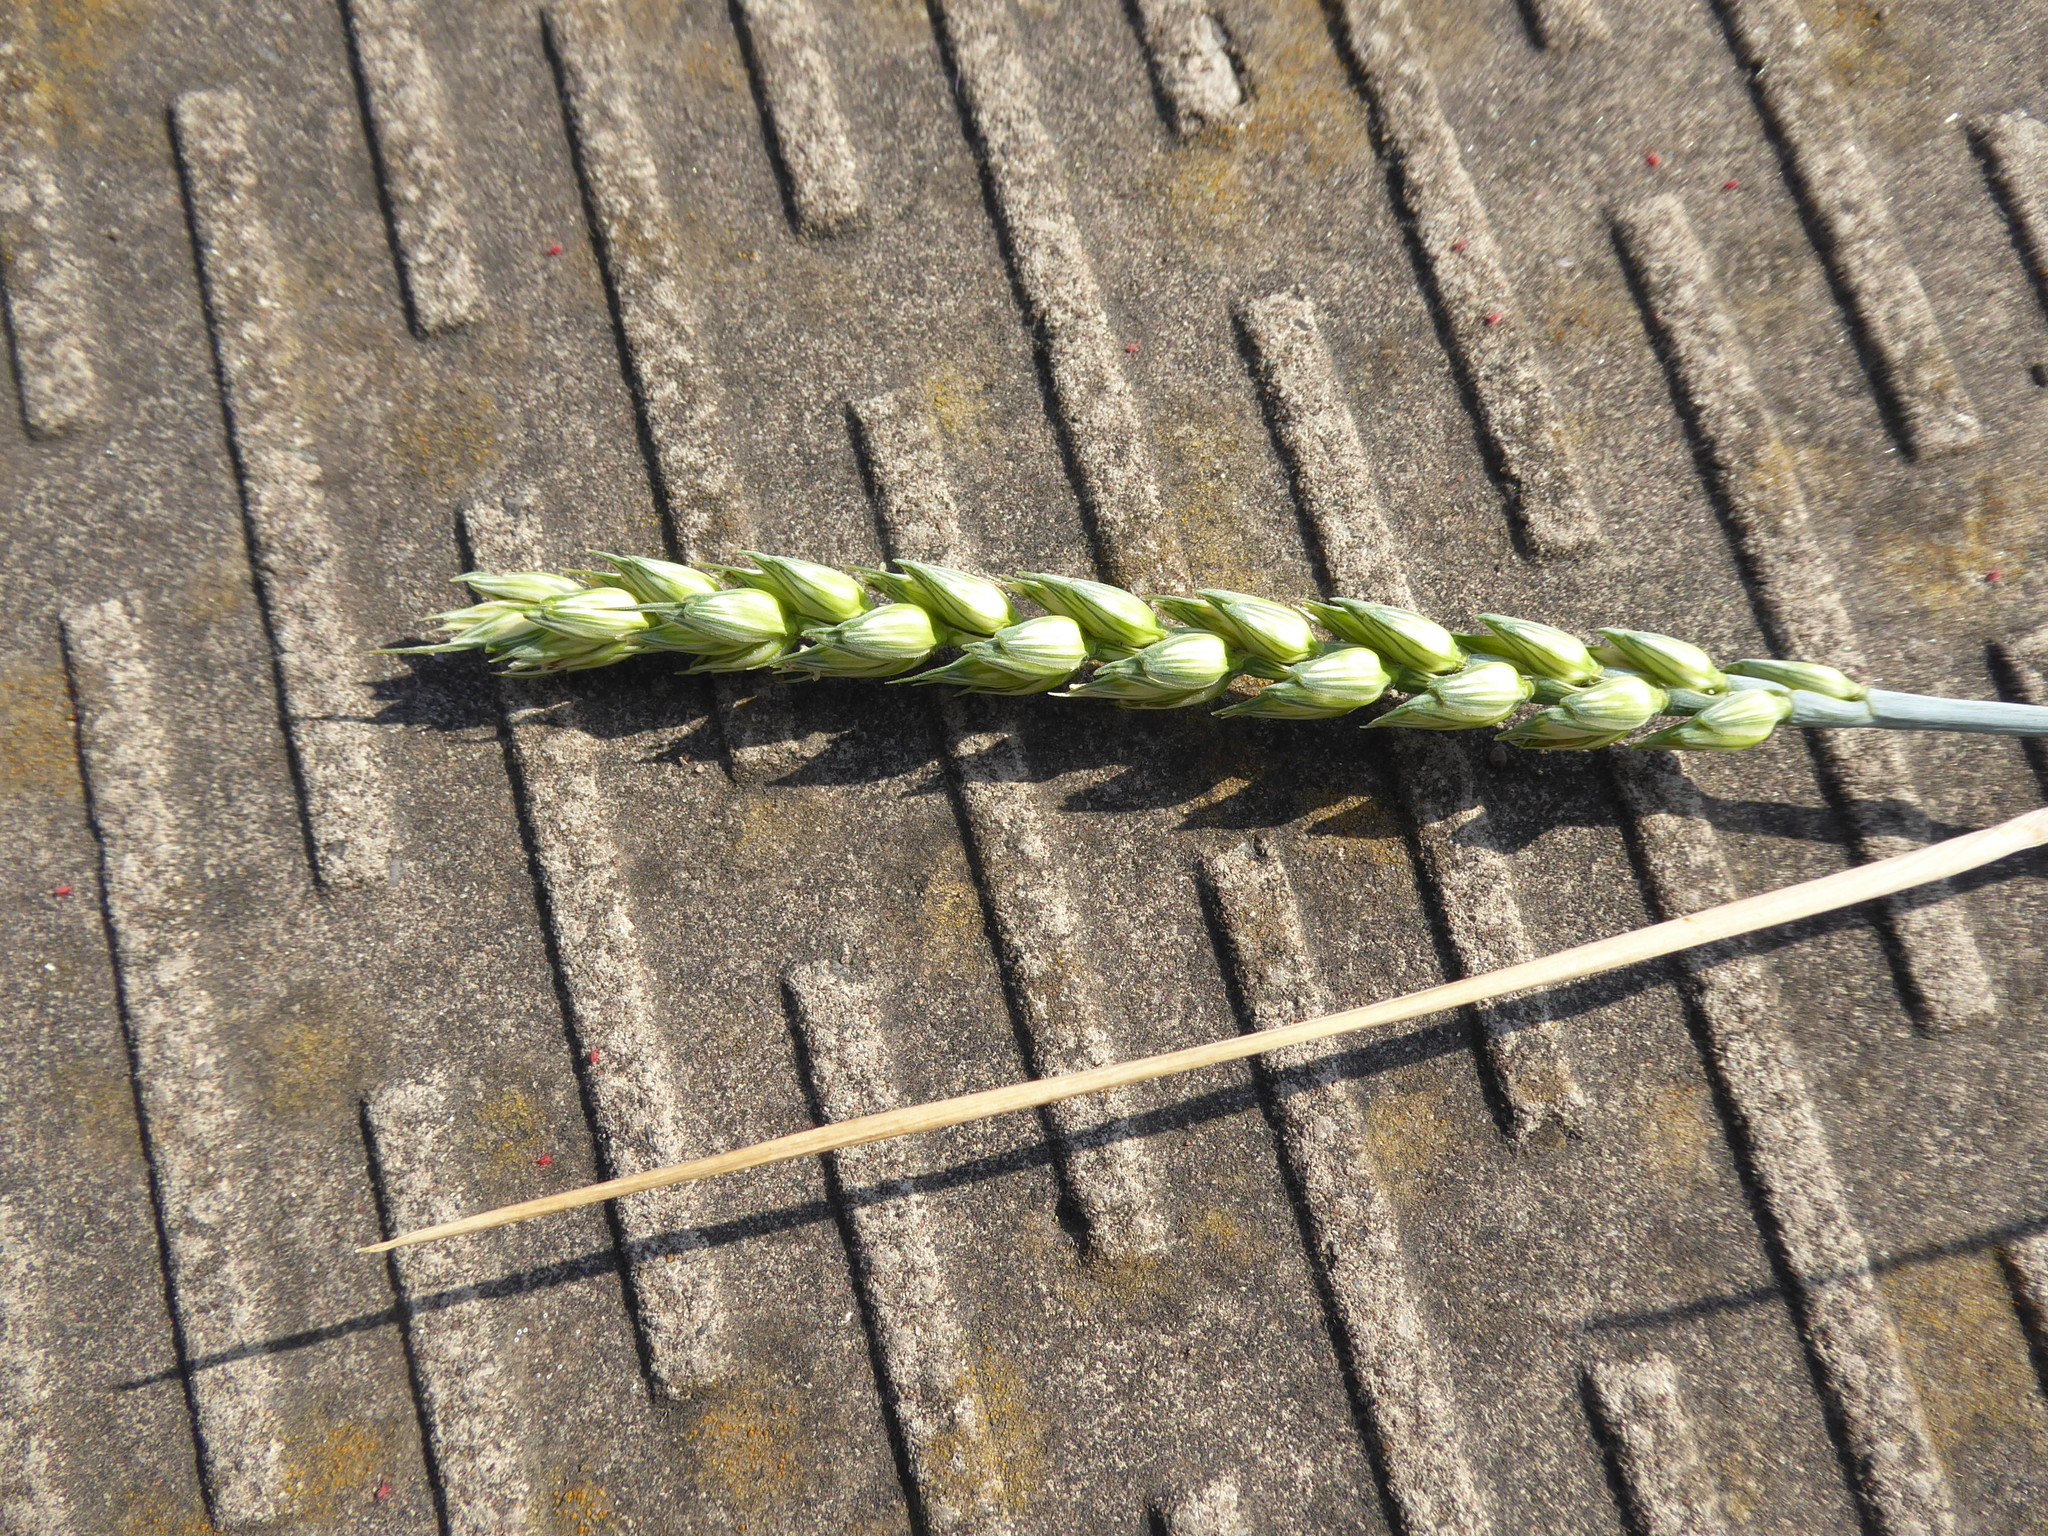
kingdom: Plantae
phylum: Tracheophyta
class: Liliopsida
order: Poales
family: Poaceae
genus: Triticum
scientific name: Triticum aestivum
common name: Common wheat
